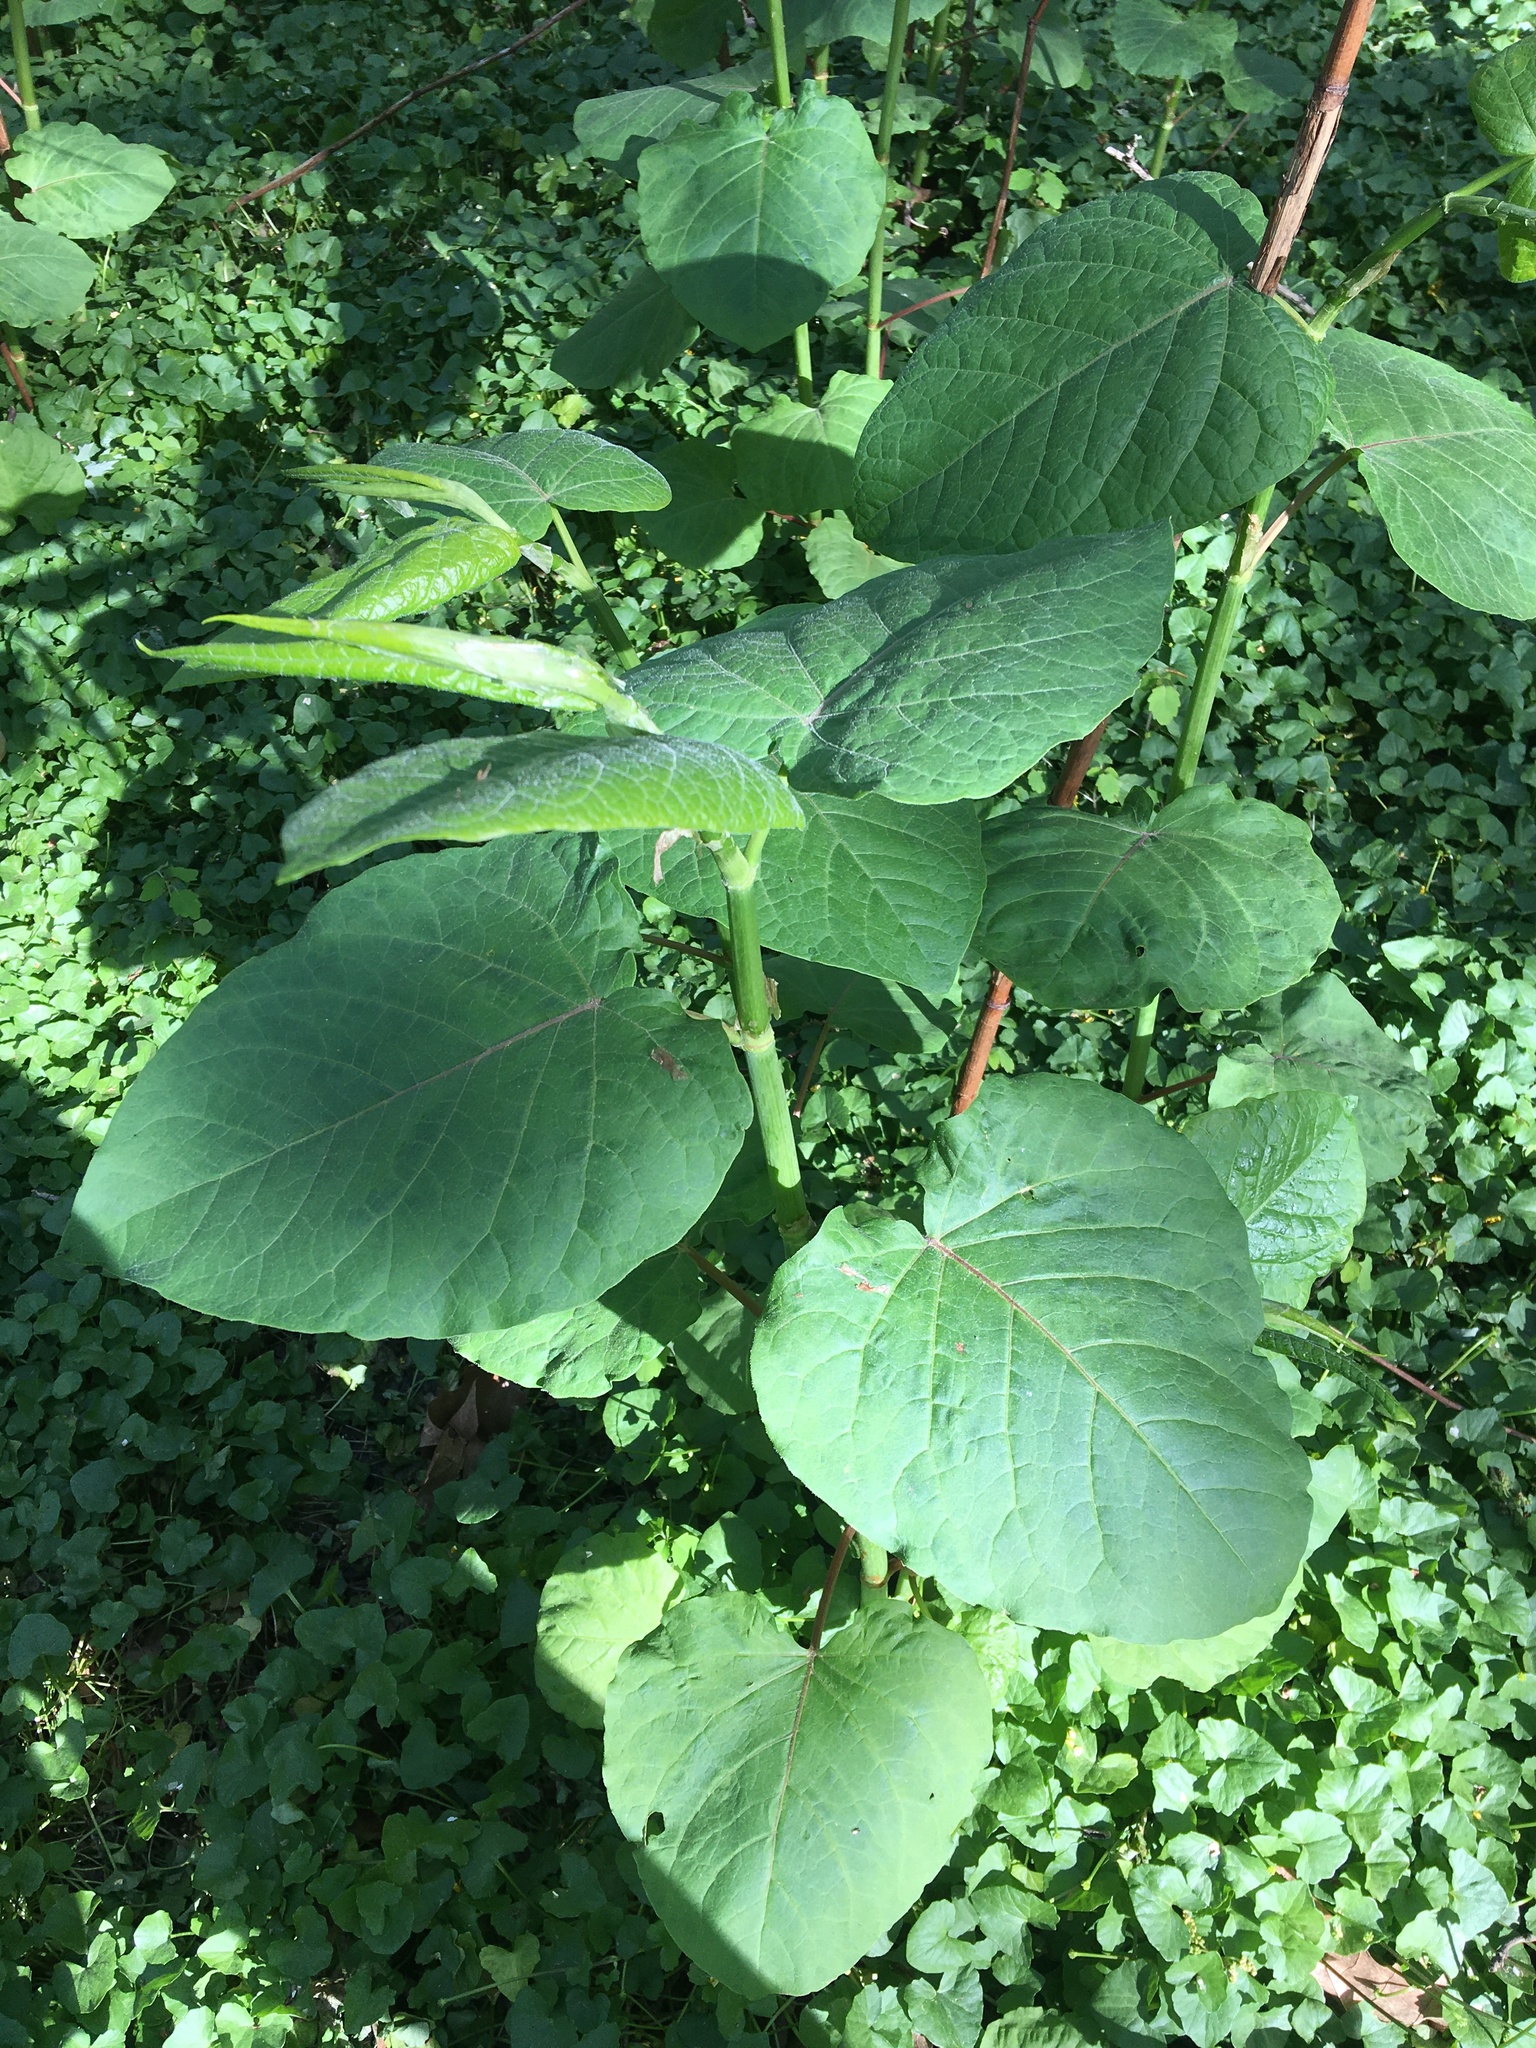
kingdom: Plantae
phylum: Tracheophyta
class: Magnoliopsida
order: Caryophyllales
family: Polygonaceae
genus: Reynoutria
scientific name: Reynoutria sachalinensis
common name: Giant knotweed
